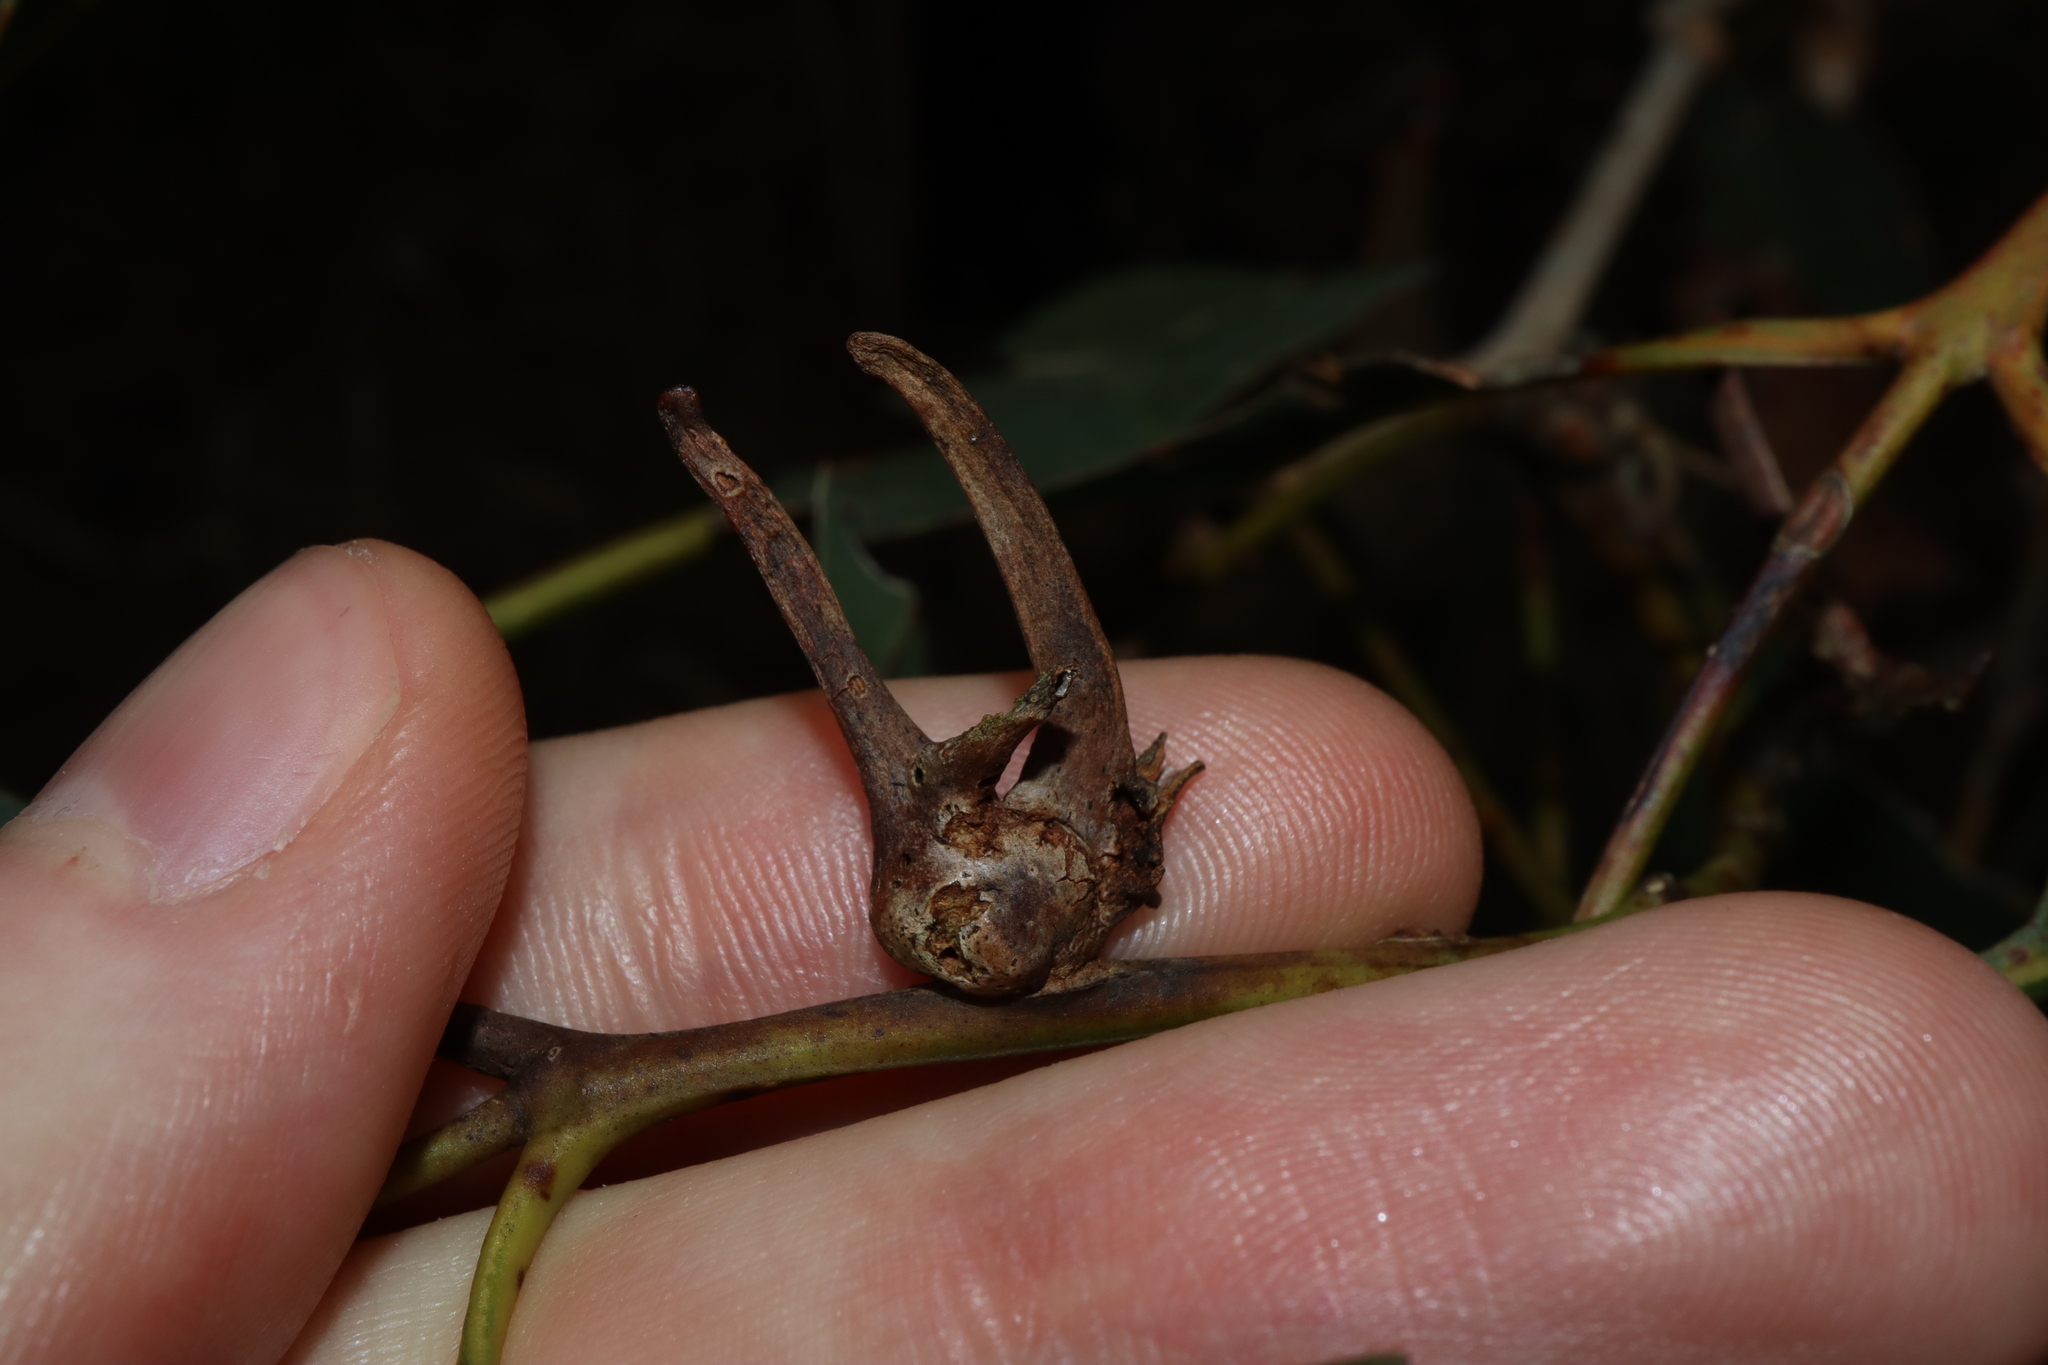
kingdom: Animalia
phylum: Arthropoda
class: Insecta
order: Hemiptera
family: Eriococcidae
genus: Apiomorpha
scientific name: Apiomorpha munita
